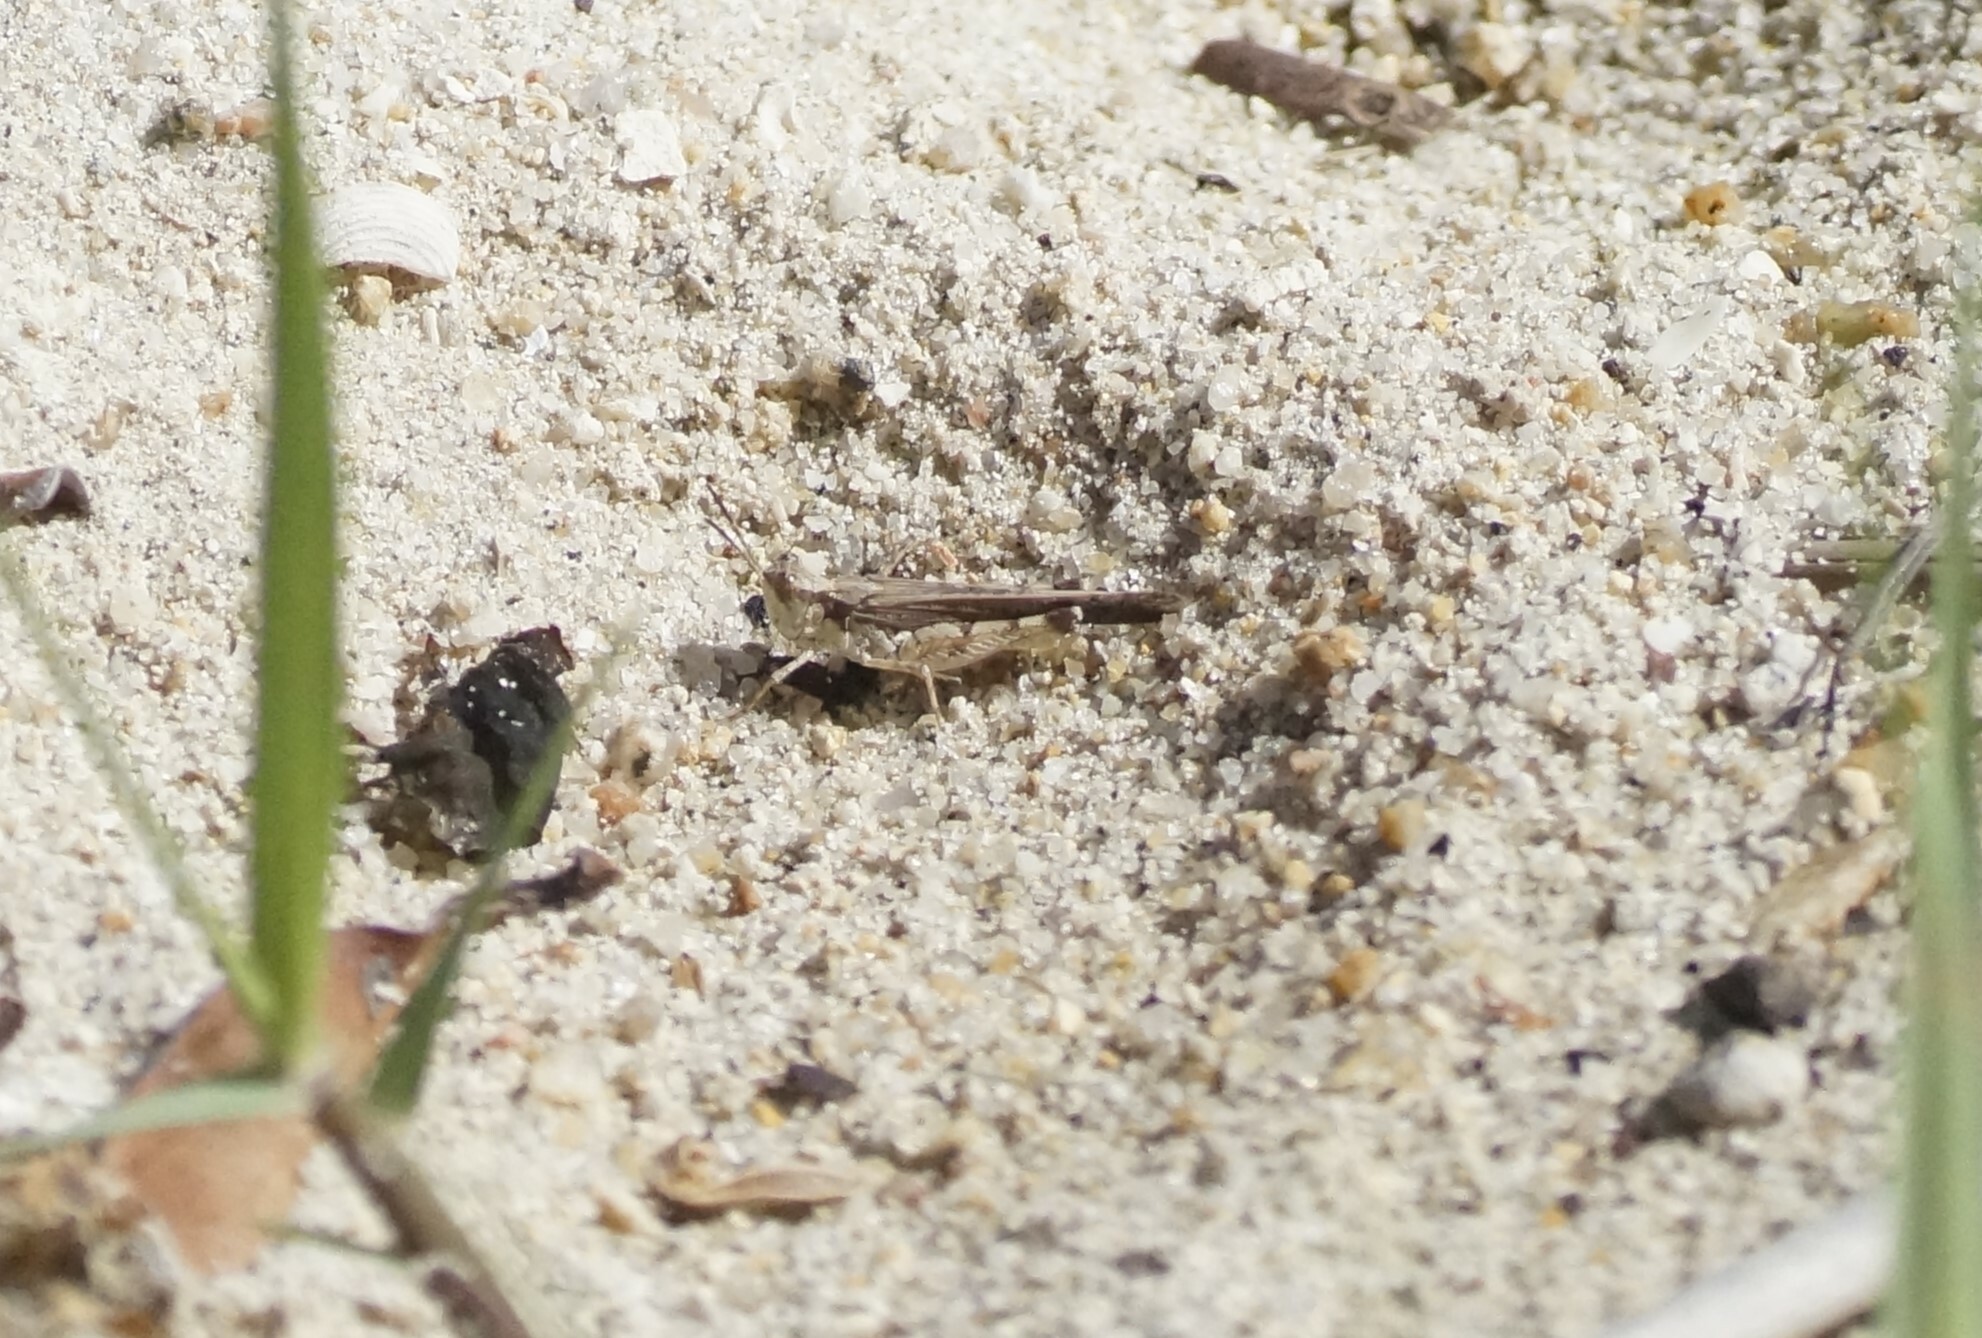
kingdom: Animalia
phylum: Arthropoda
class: Insecta
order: Orthoptera
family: Acrididae
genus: Pycnostictus
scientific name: Pycnostictus seriatus
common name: Common bandwing
